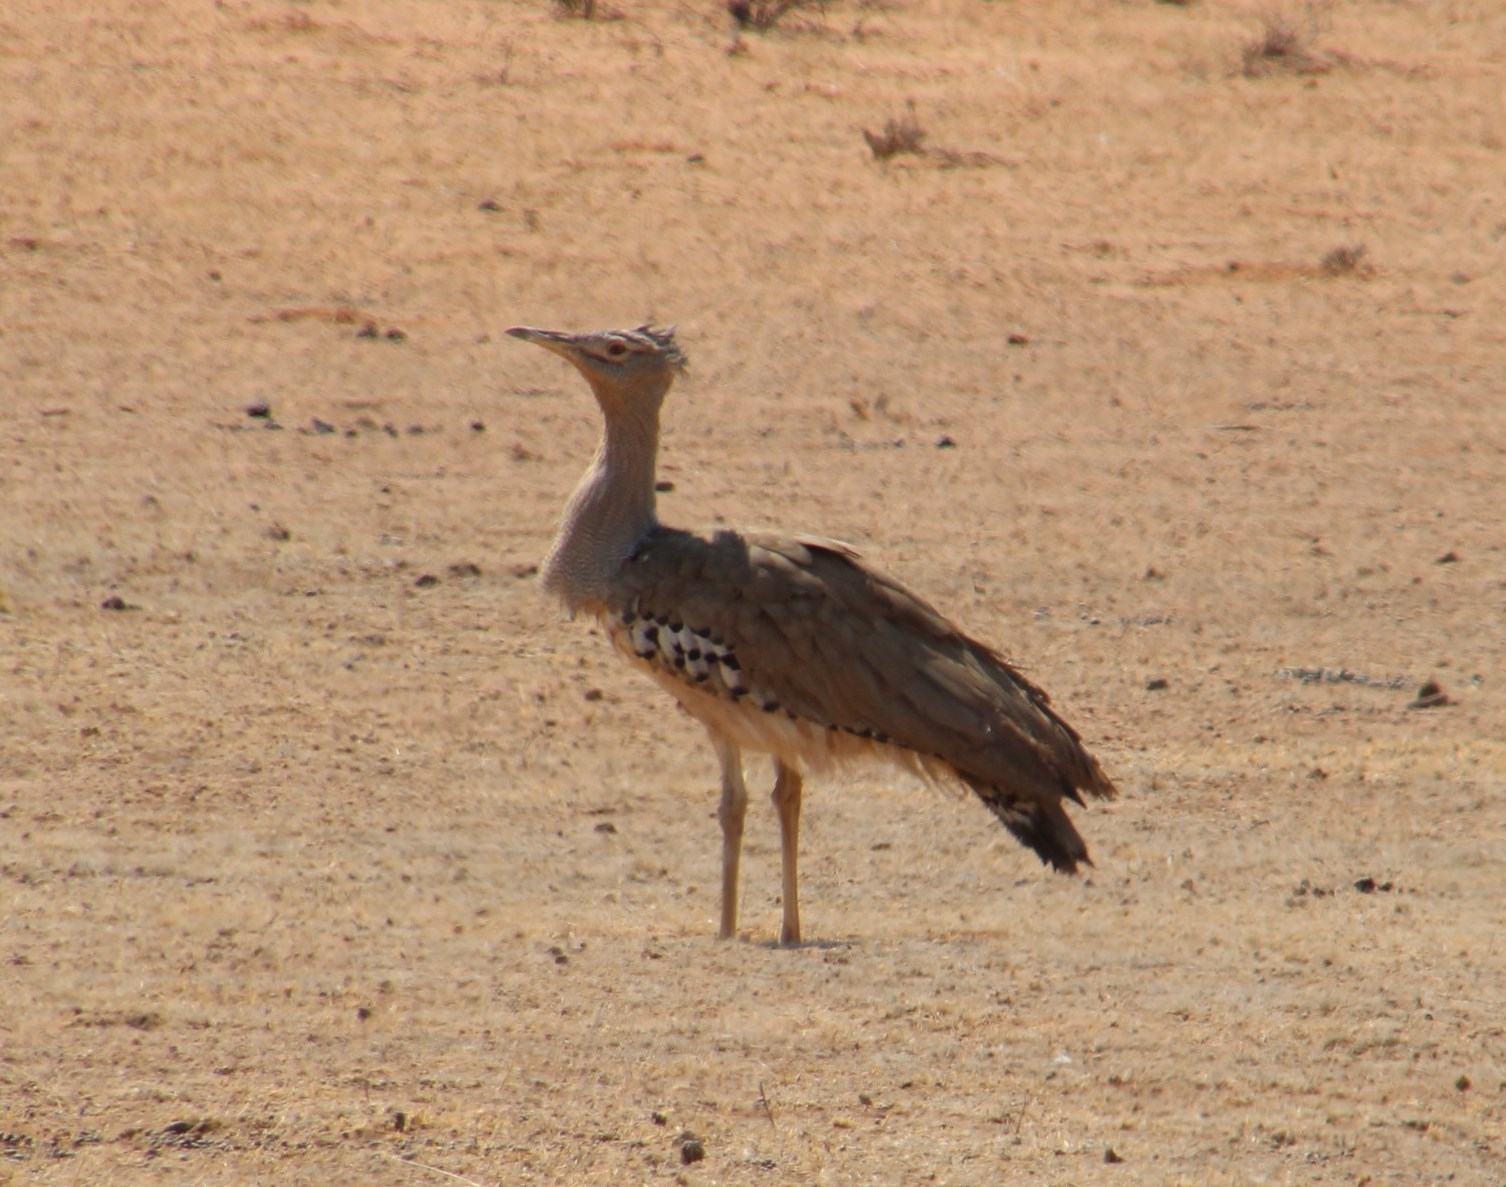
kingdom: Animalia
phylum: Chordata
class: Aves
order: Otidiformes
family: Otididae
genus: Ardeotis
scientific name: Ardeotis kori
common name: Kori bustard
